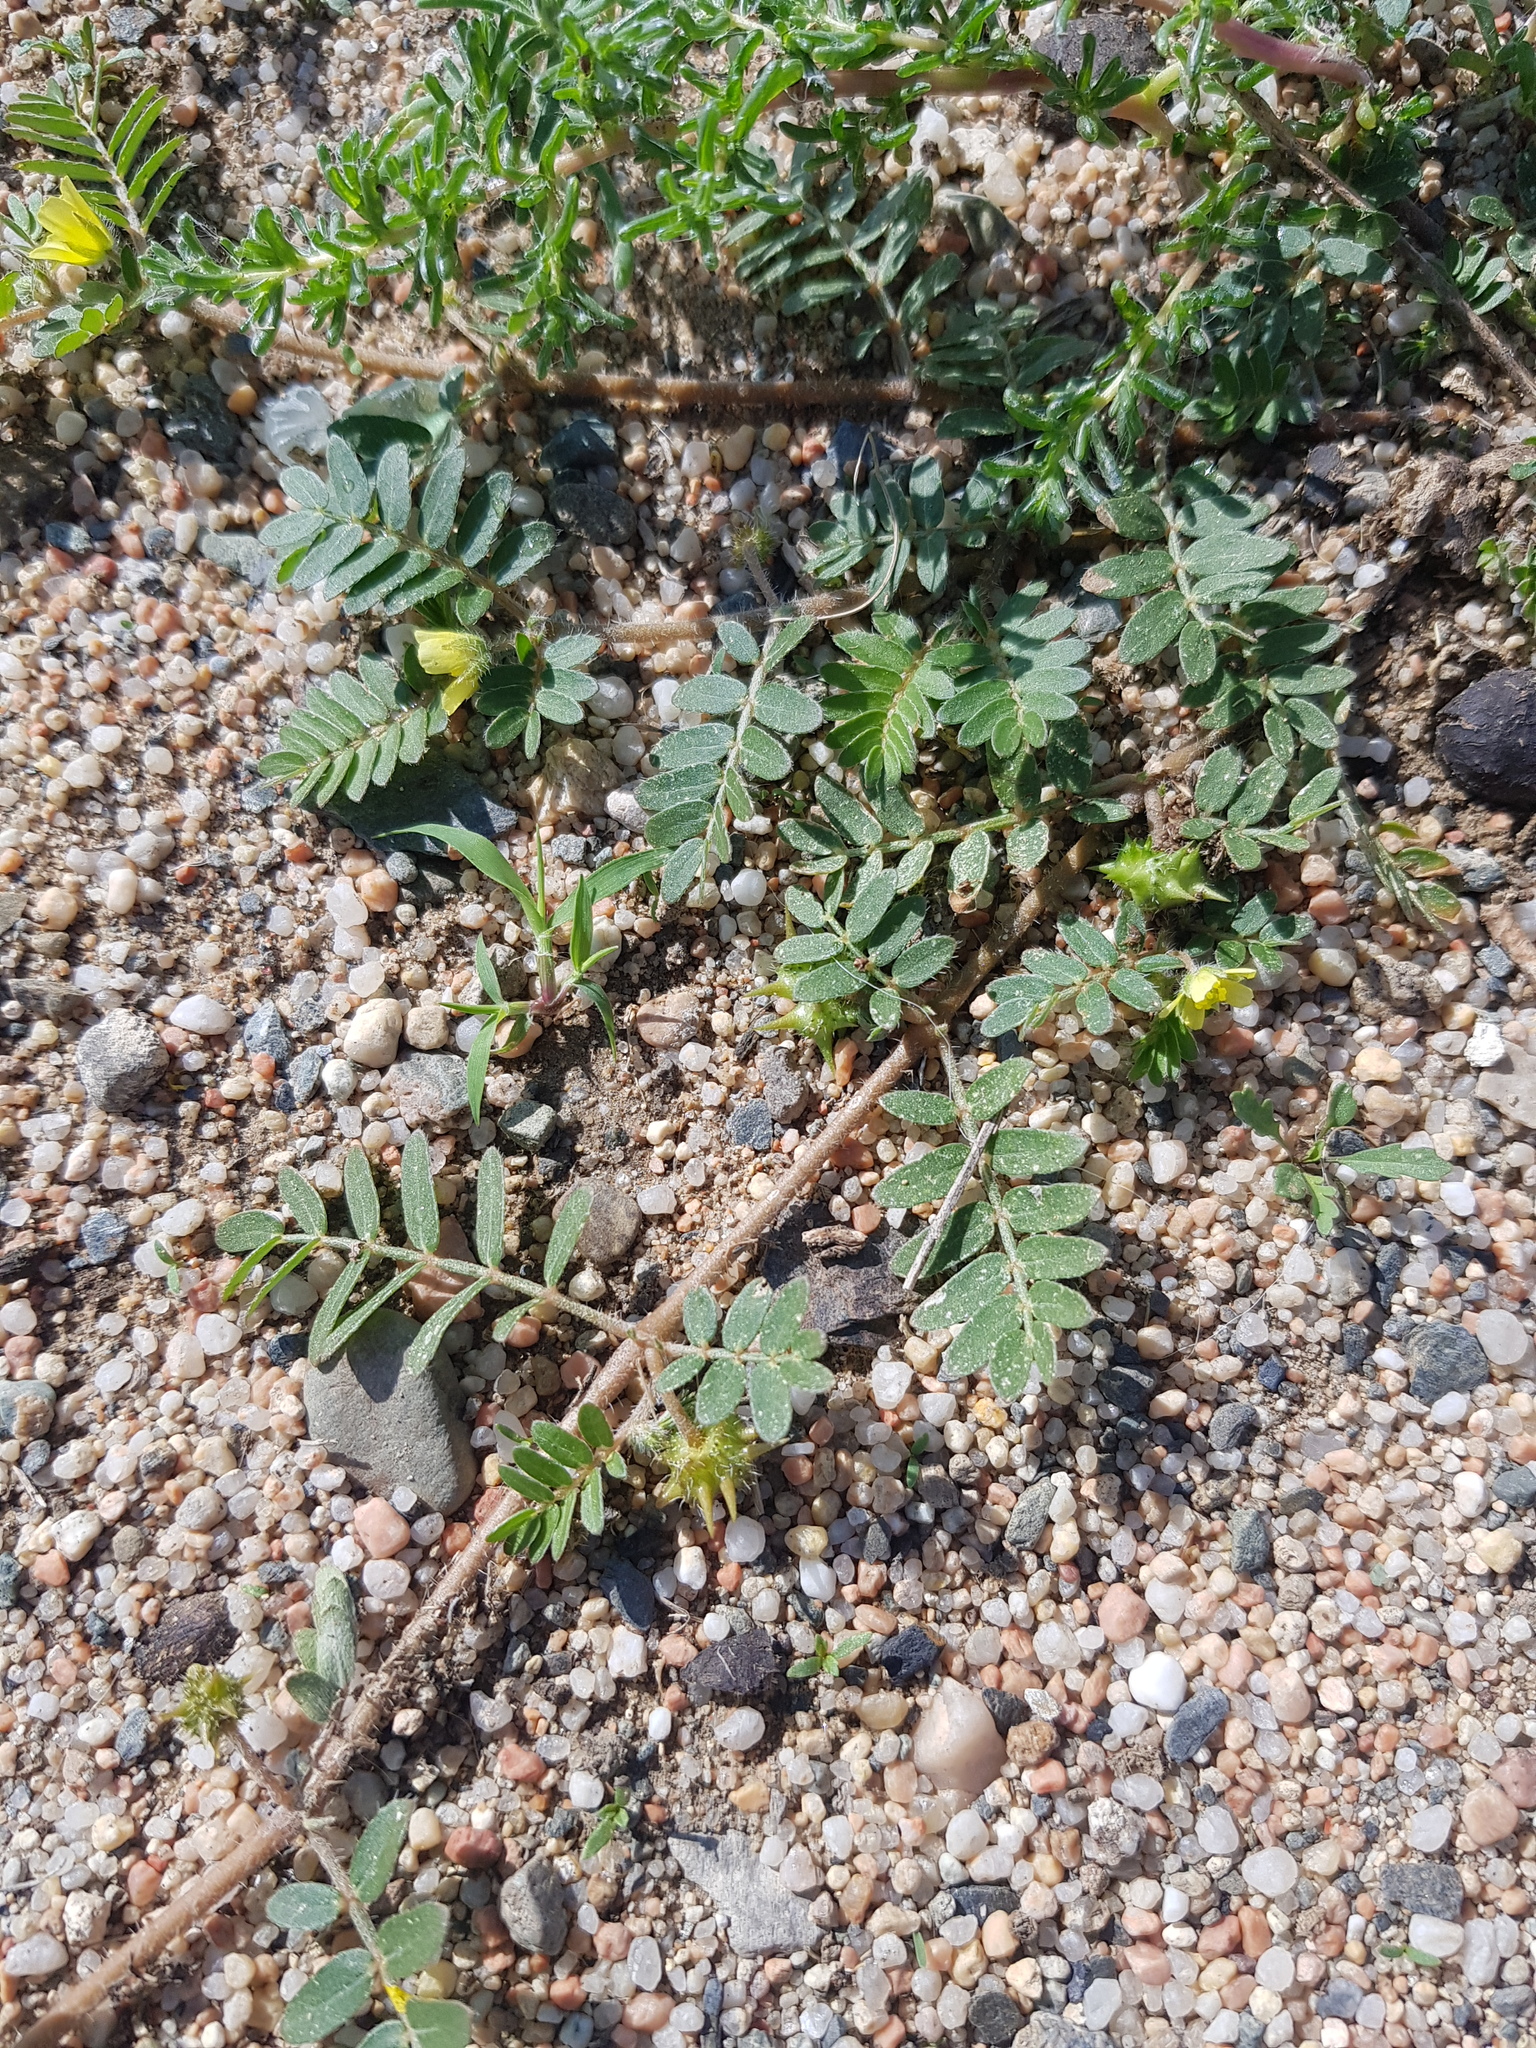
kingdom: Plantae
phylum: Tracheophyta
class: Magnoliopsida
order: Zygophyllales
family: Zygophyllaceae
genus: Tribulus
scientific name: Tribulus terrestris
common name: Puncturevine
